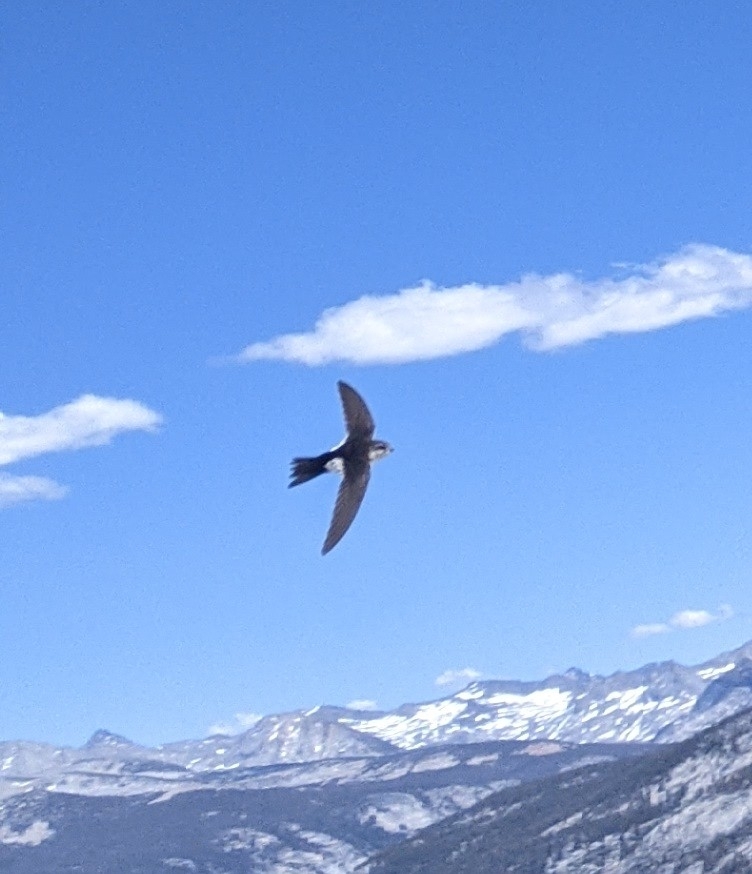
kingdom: Animalia
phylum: Chordata
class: Aves
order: Apodiformes
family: Apodidae
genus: Aeronautes
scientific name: Aeronautes saxatalis
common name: White-throated swift
